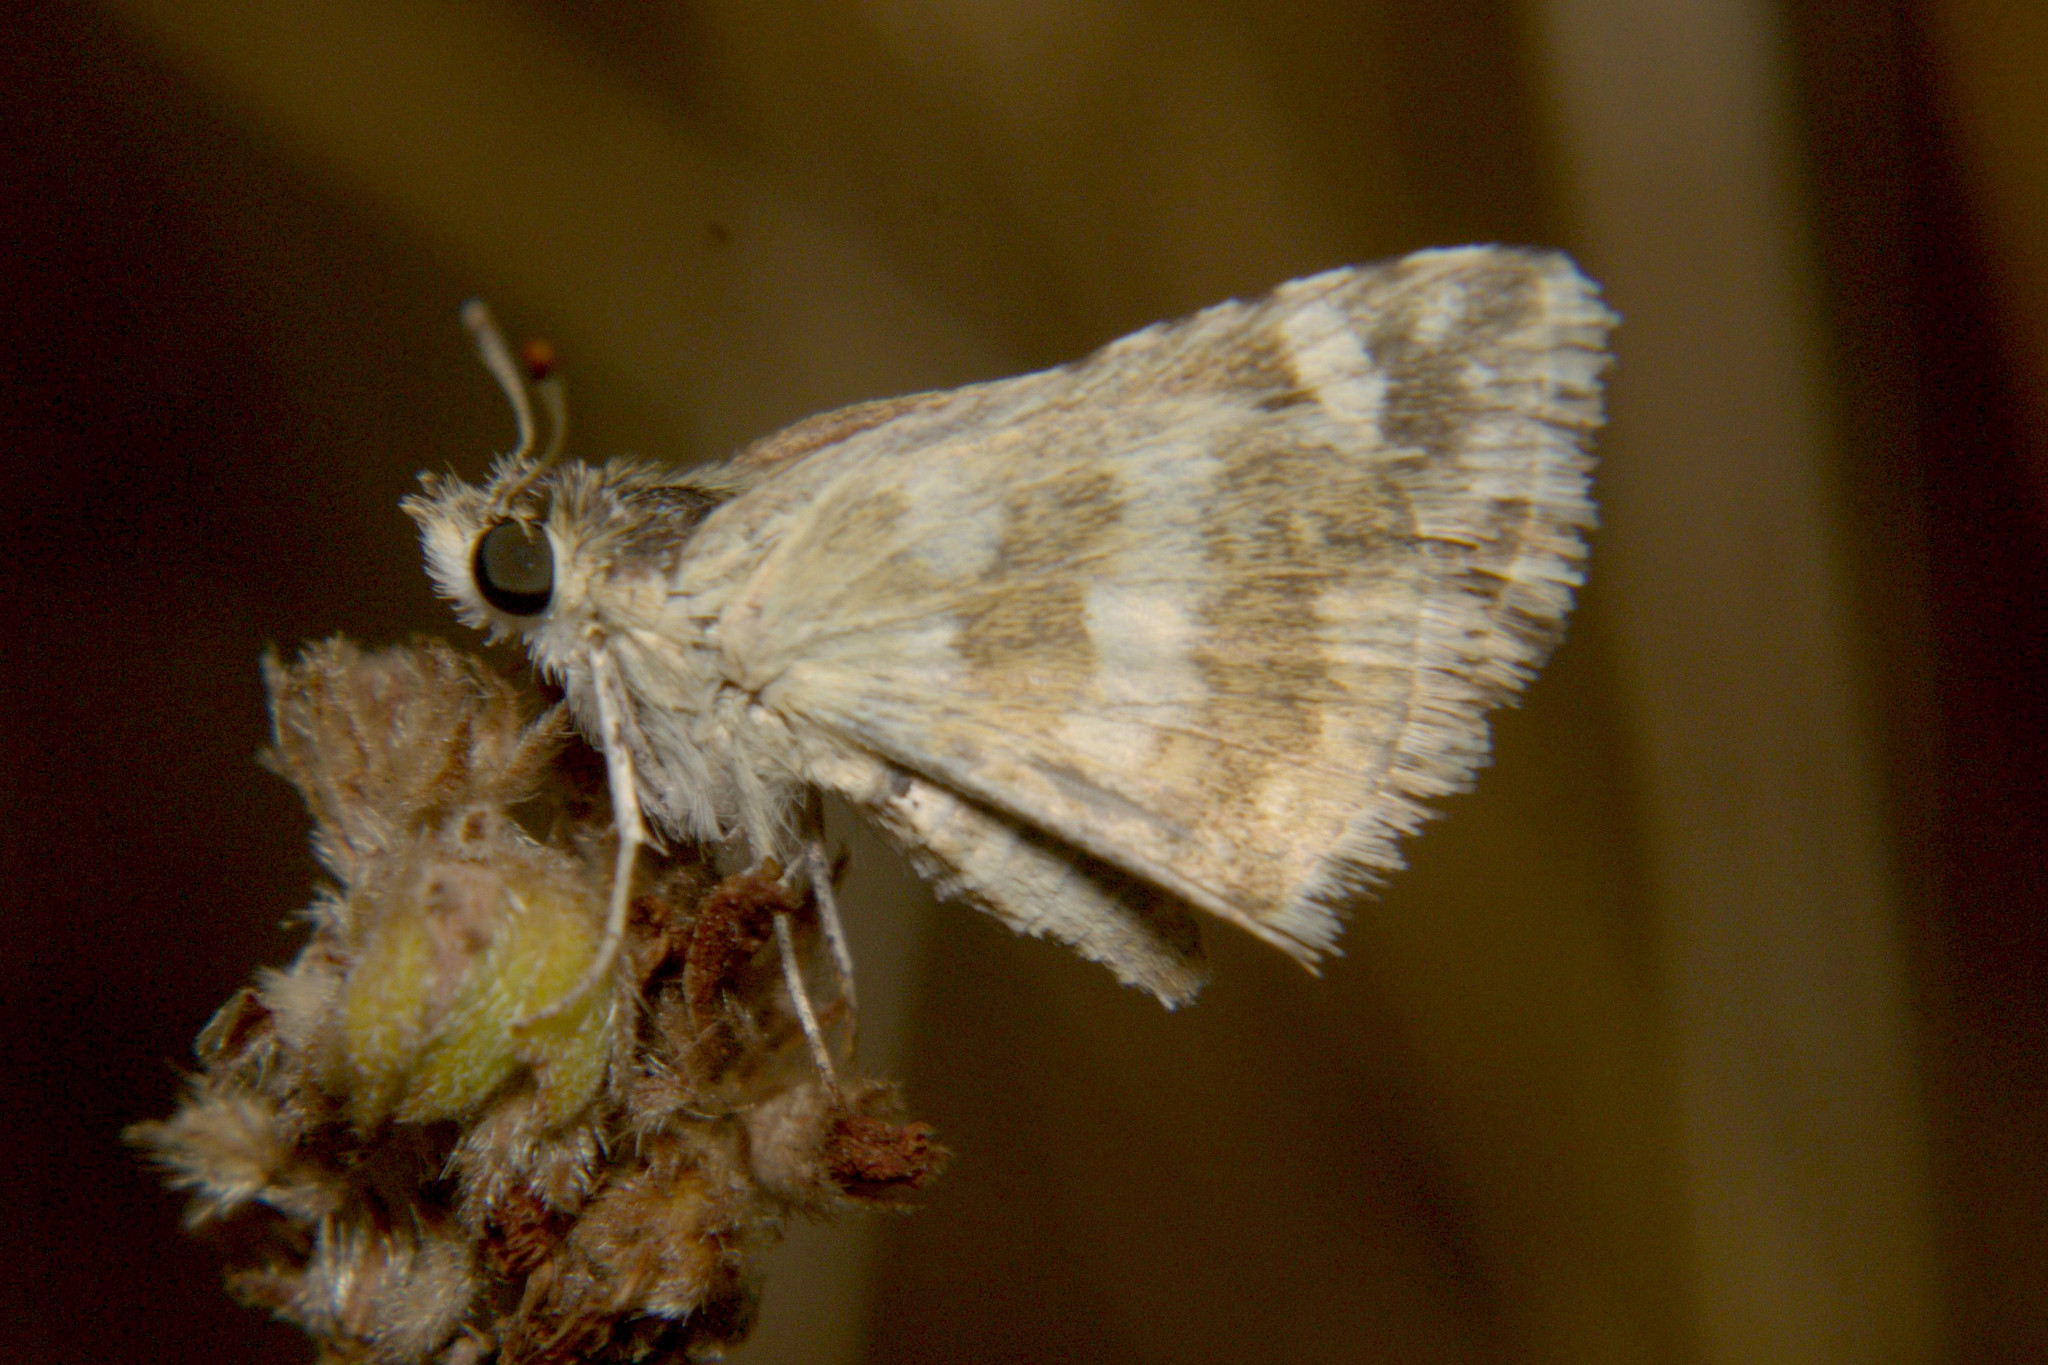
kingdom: Animalia
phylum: Arthropoda
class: Insecta
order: Lepidoptera
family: Hesperiidae
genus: Spialia
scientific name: Spialia galba
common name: Indian skipper
